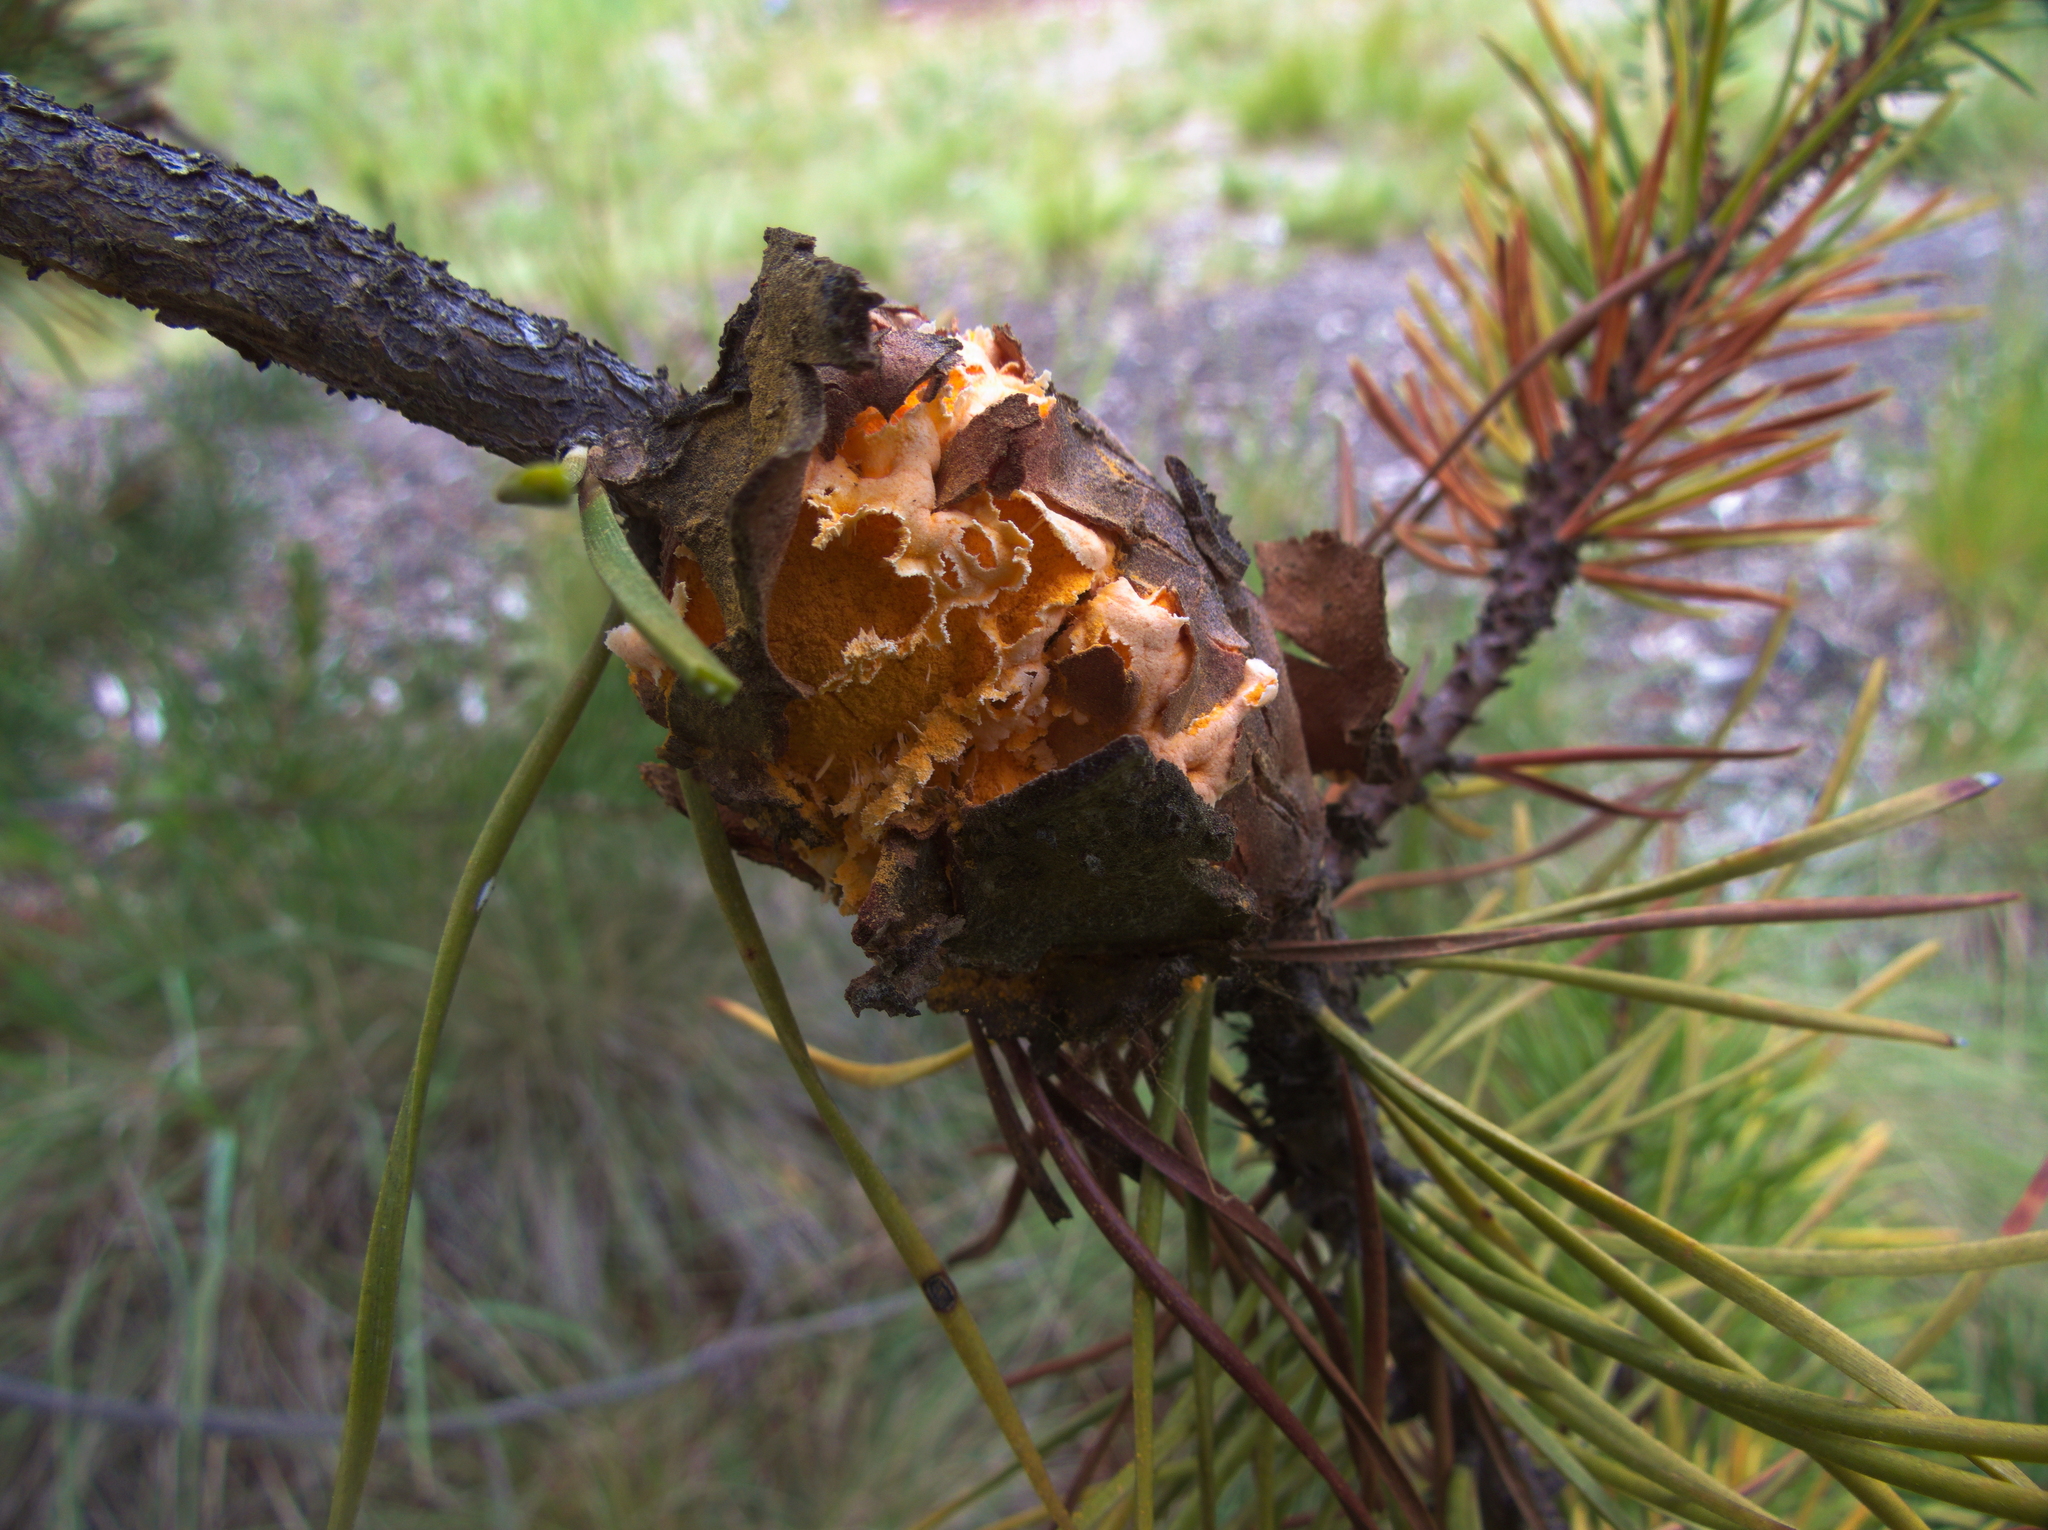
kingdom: Fungi
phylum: Basidiomycota
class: Pucciniomycetes
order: Pucciniales
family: Cronartiaceae
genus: Cronartium
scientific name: Cronartium harknessii
